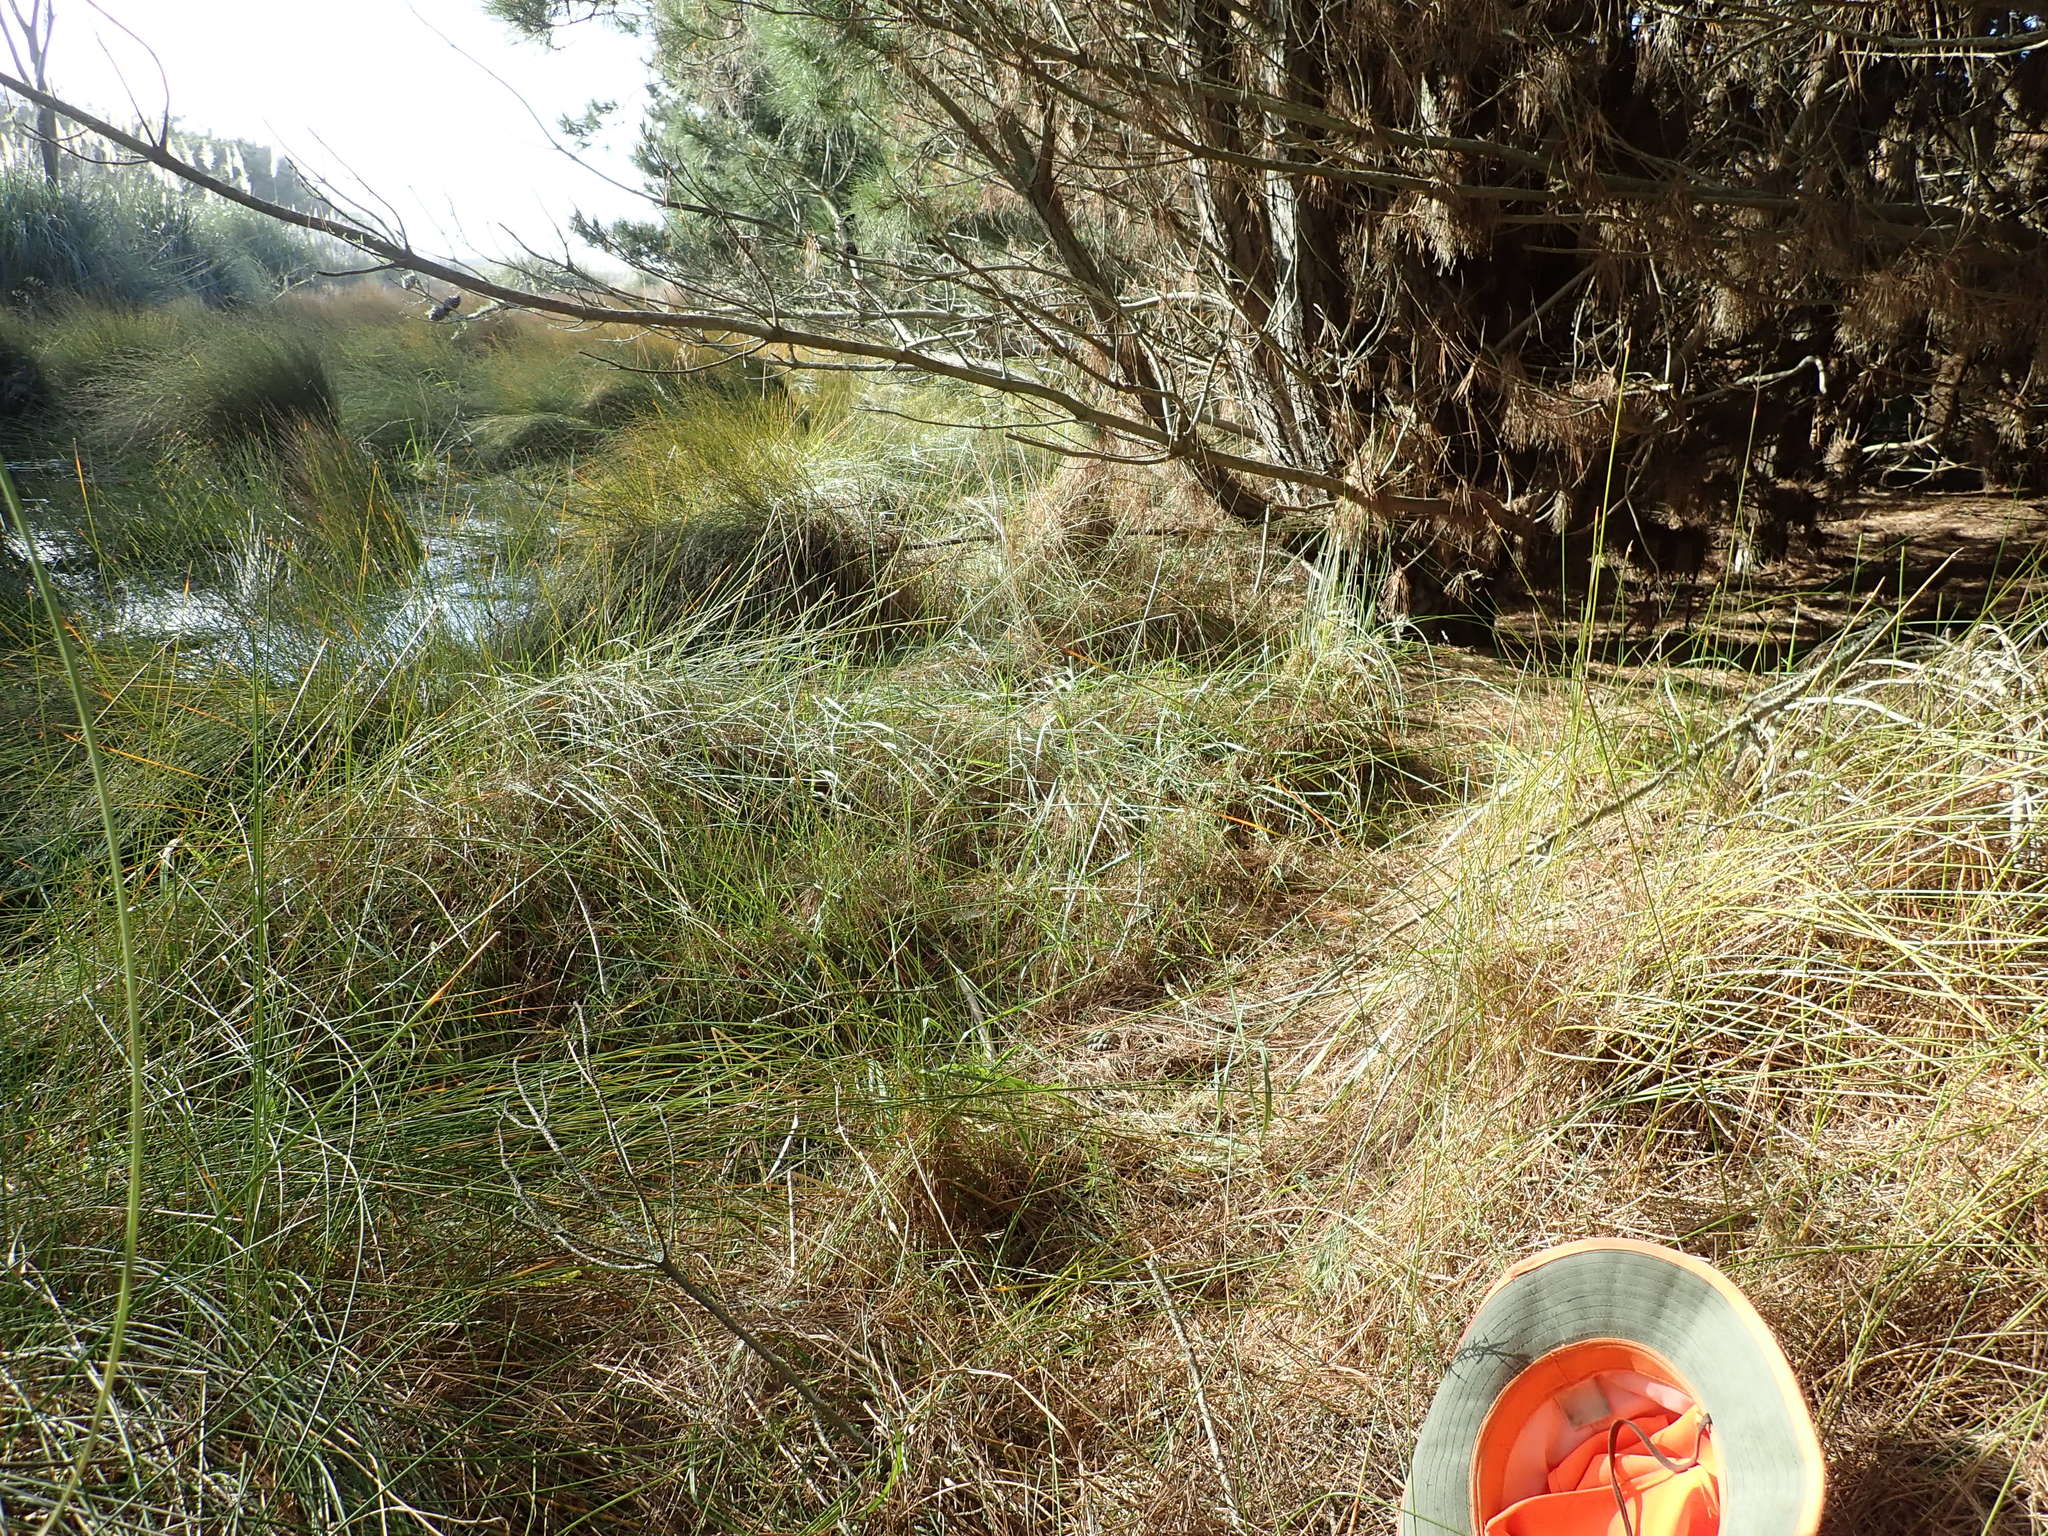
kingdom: Plantae
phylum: Tracheophyta
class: Magnoliopsida
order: Gentianales
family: Rubiaceae
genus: Coprosma
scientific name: Coprosma acerosa
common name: Sand coprosma
